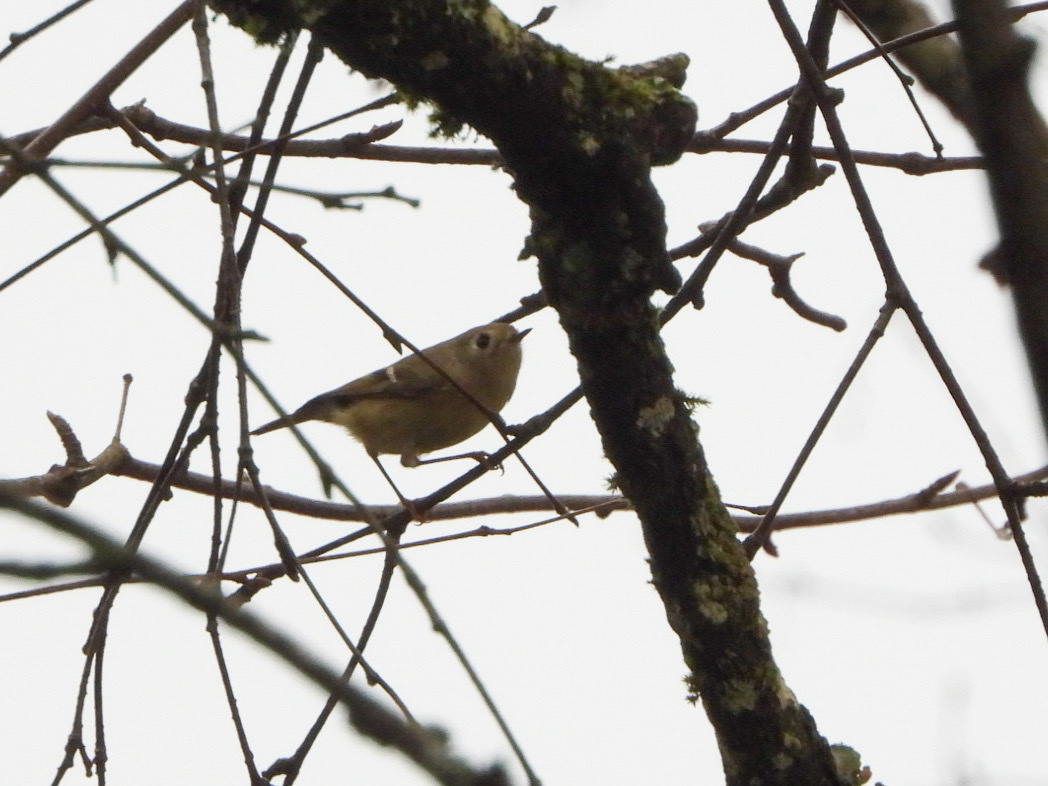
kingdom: Animalia
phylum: Chordata
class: Aves
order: Passeriformes
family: Regulidae
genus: Regulus
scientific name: Regulus calendula
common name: Ruby-crowned kinglet
